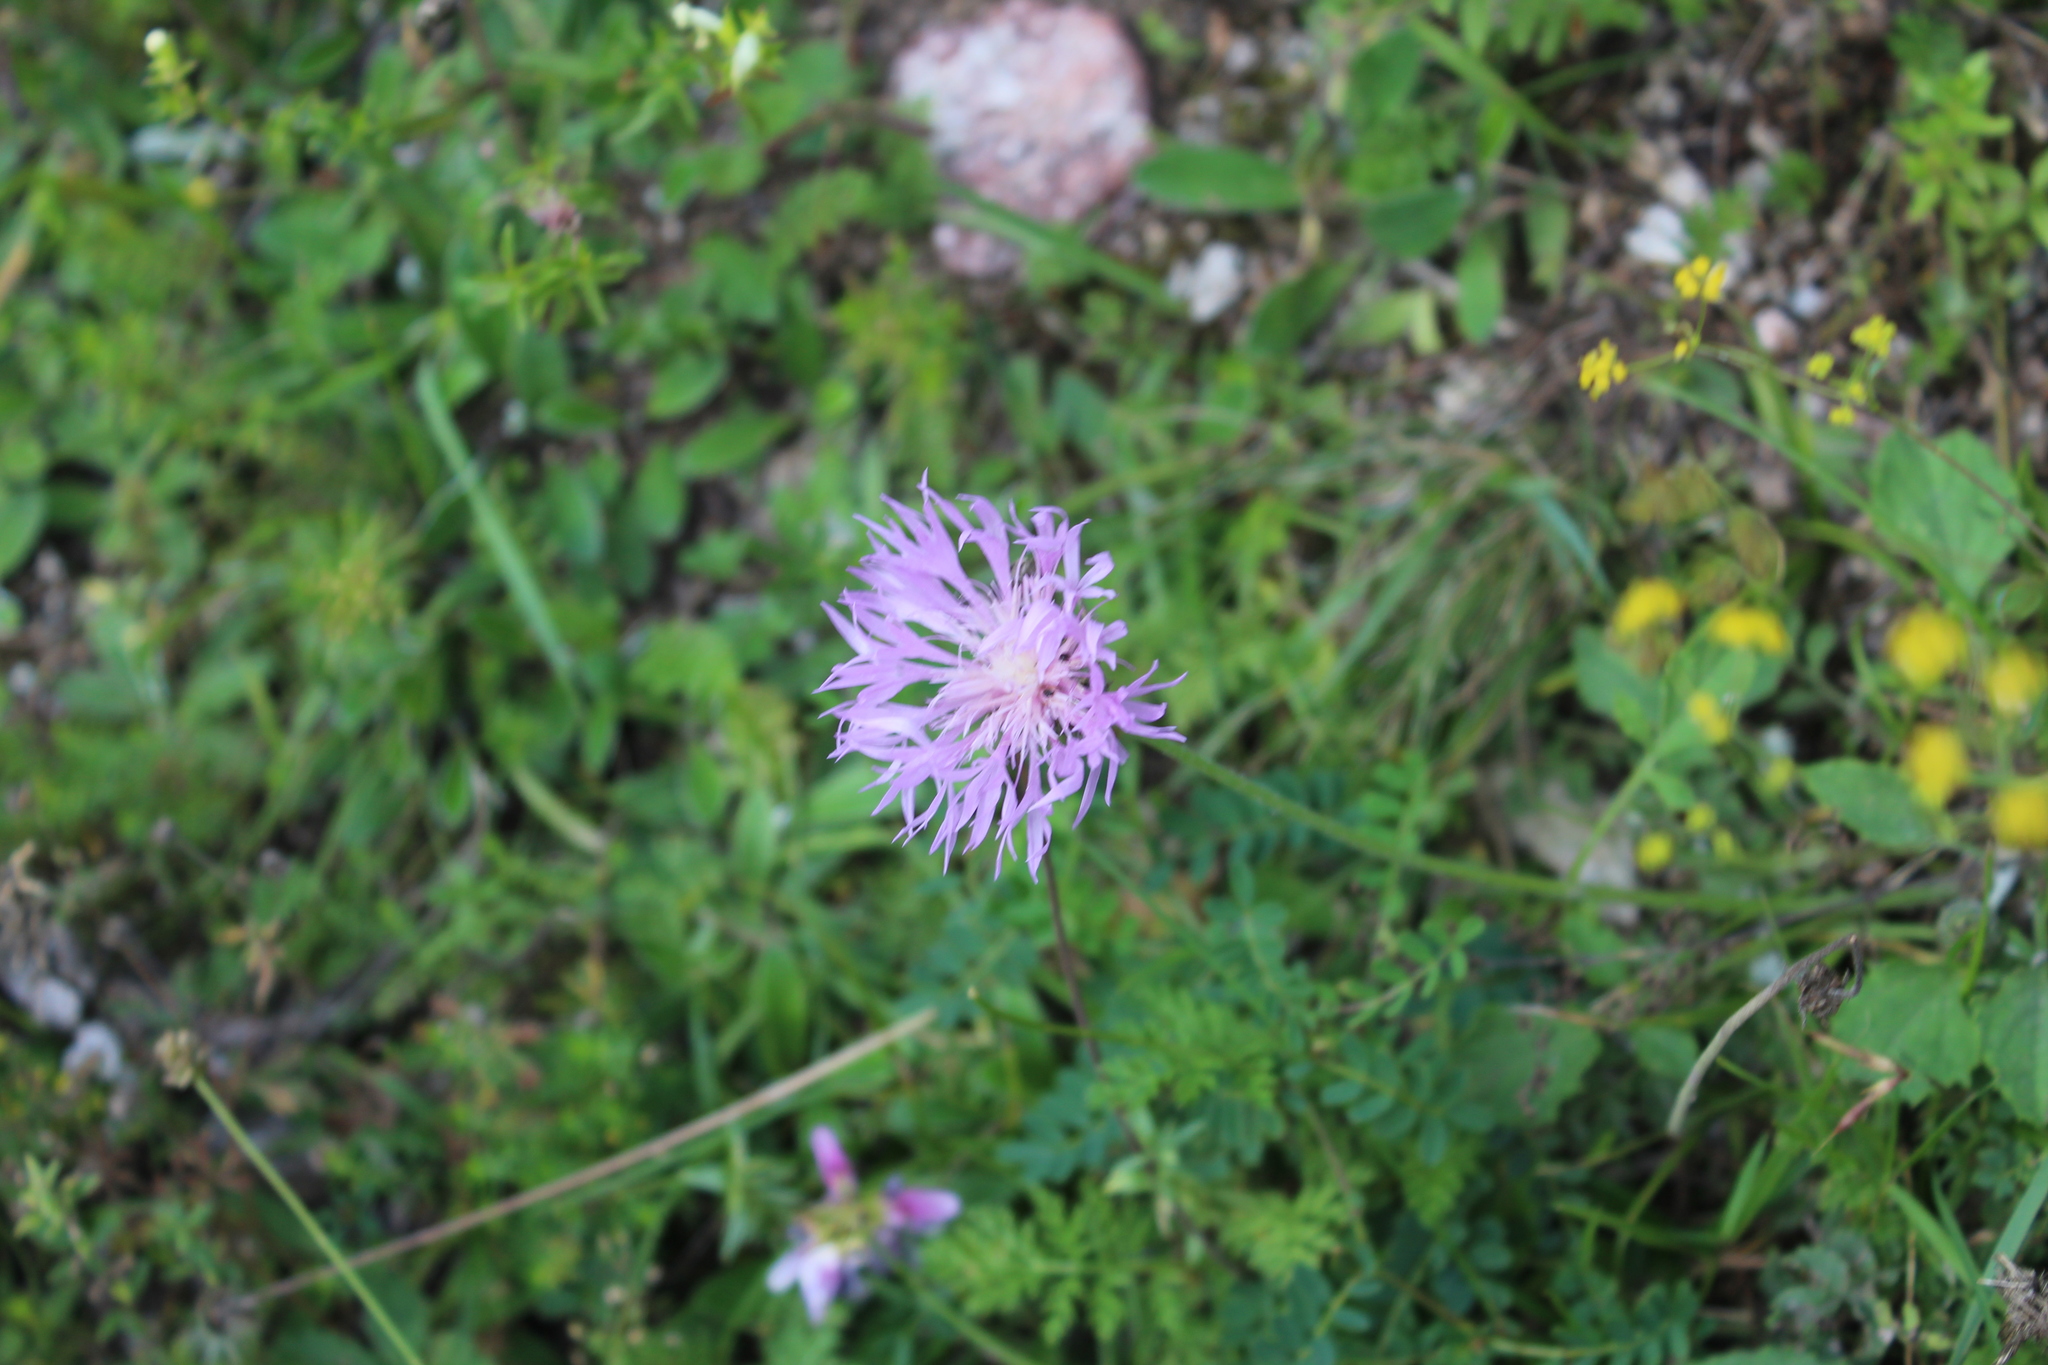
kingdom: Plantae
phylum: Tracheophyta
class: Magnoliopsida
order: Asterales
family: Asteraceae
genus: Psephellus
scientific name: Psephellus salviifolius
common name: Sage-leaved psephellus
